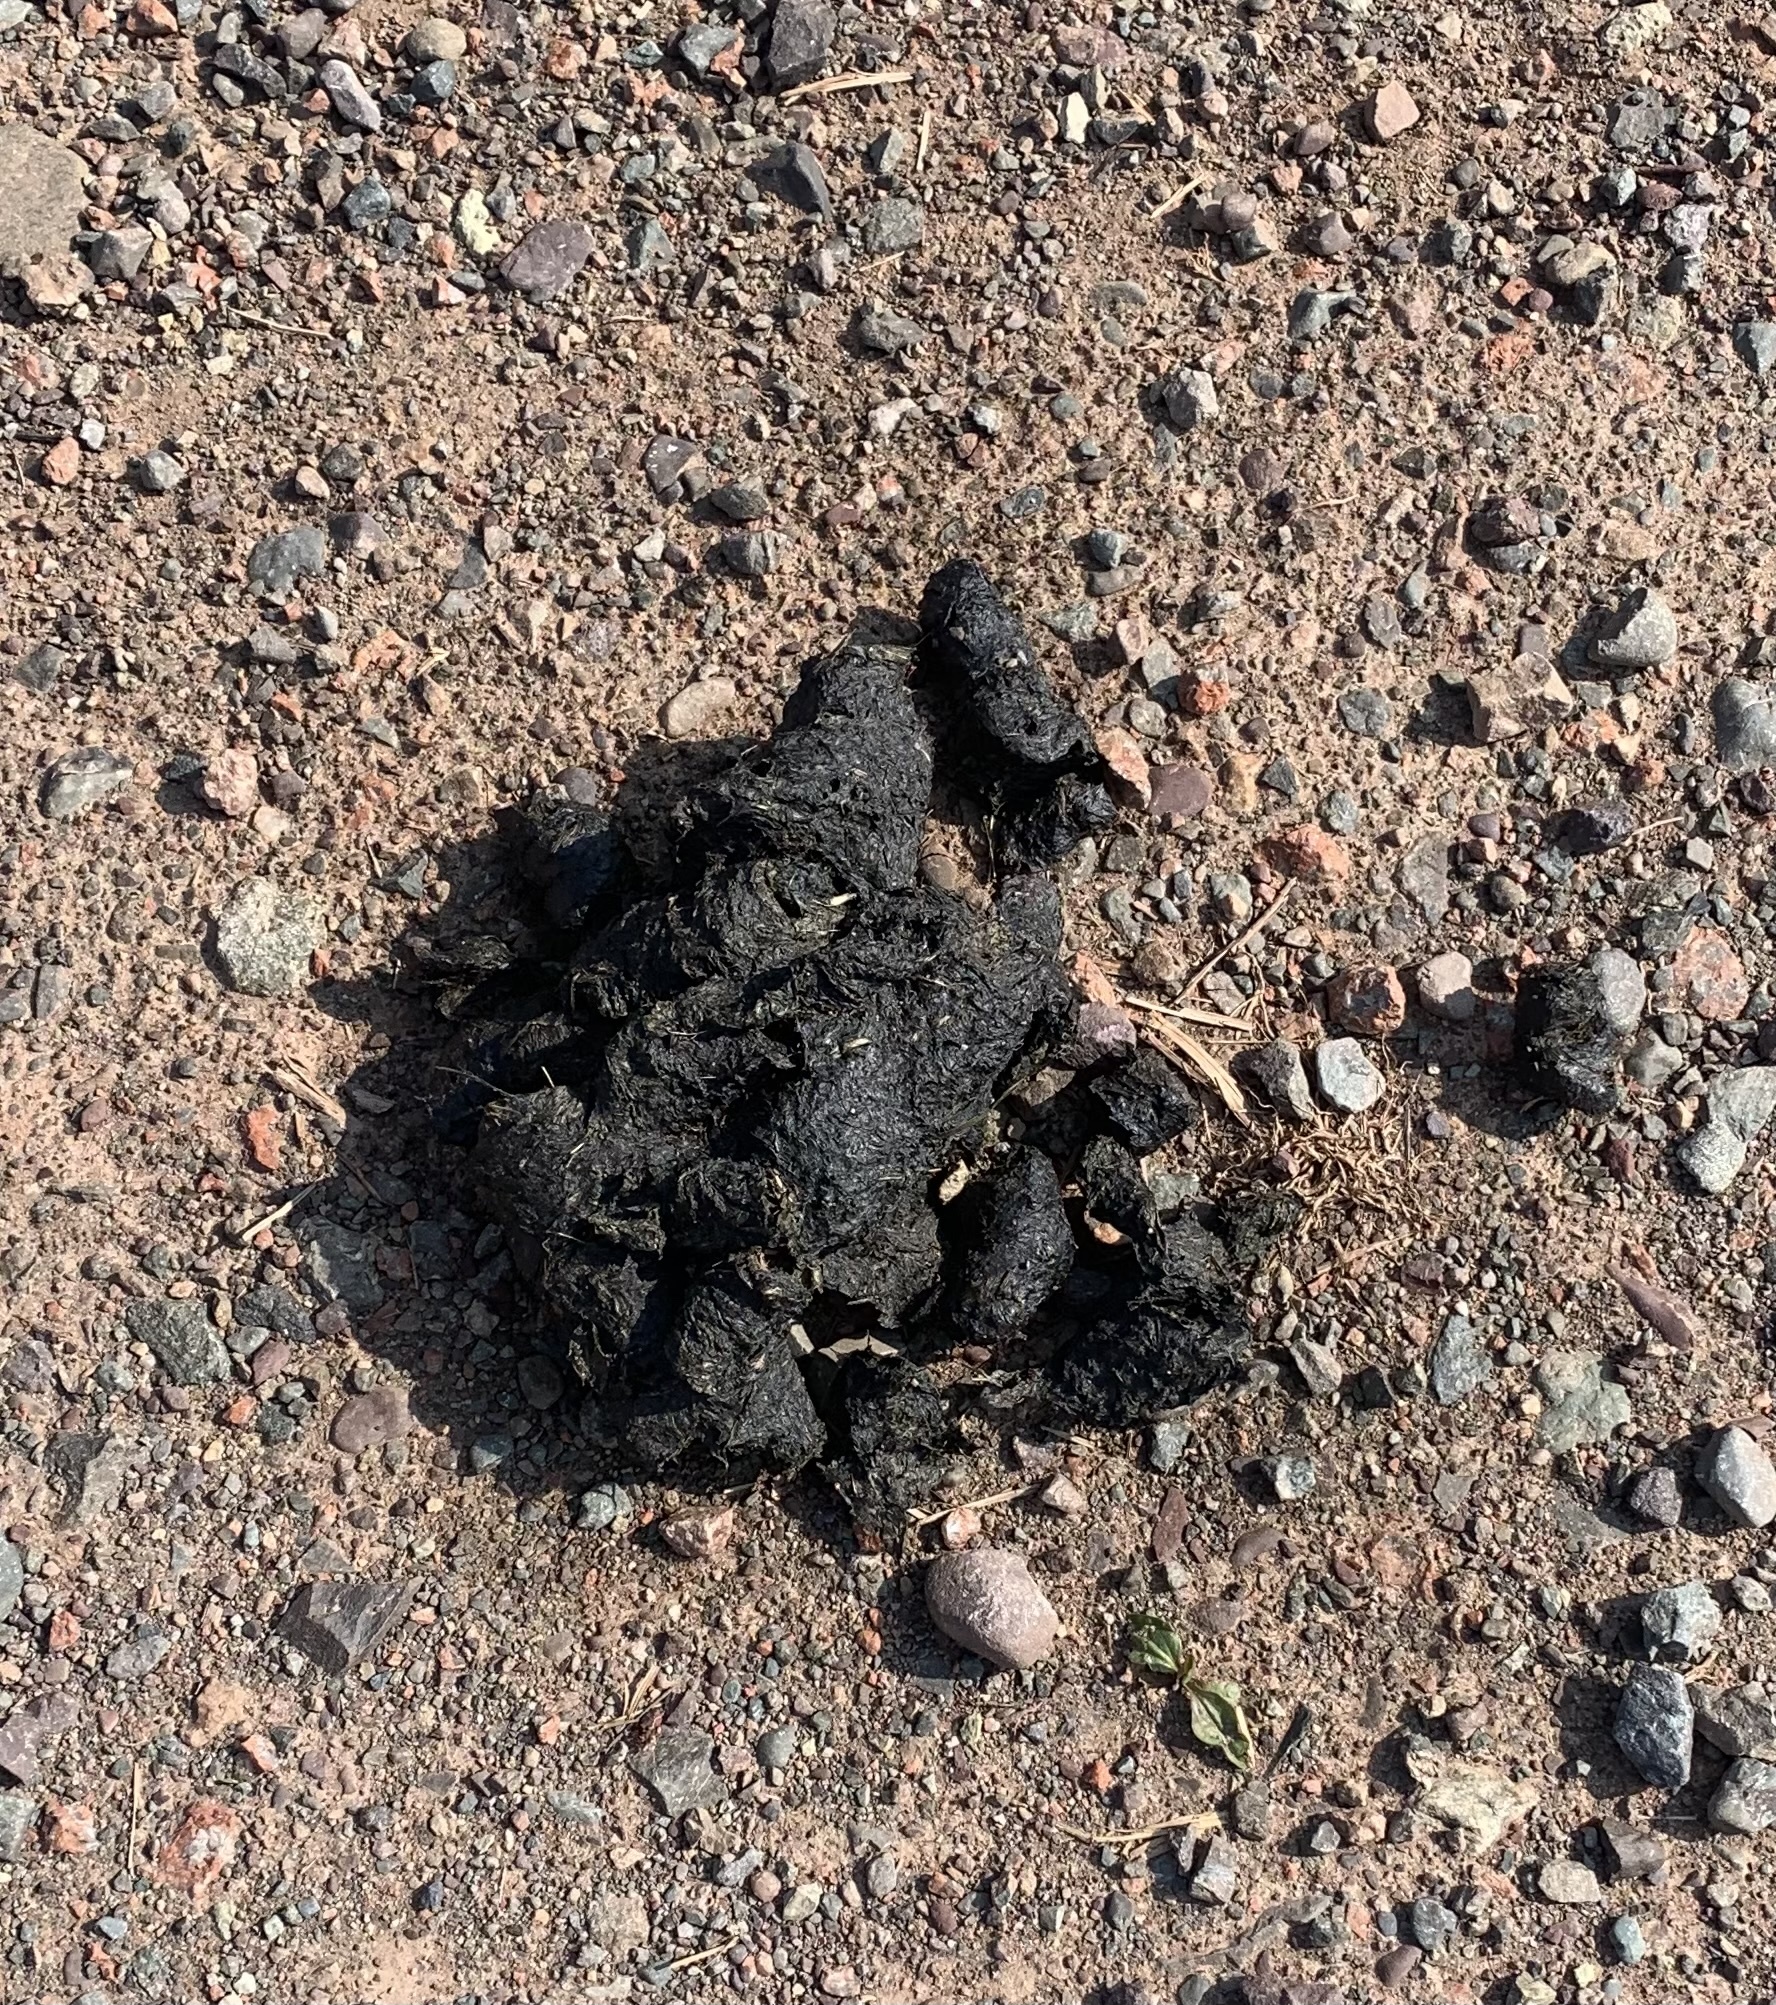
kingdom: Animalia
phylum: Chordata
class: Mammalia
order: Carnivora
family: Ursidae
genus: Ursus
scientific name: Ursus americanus
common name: American black bear
